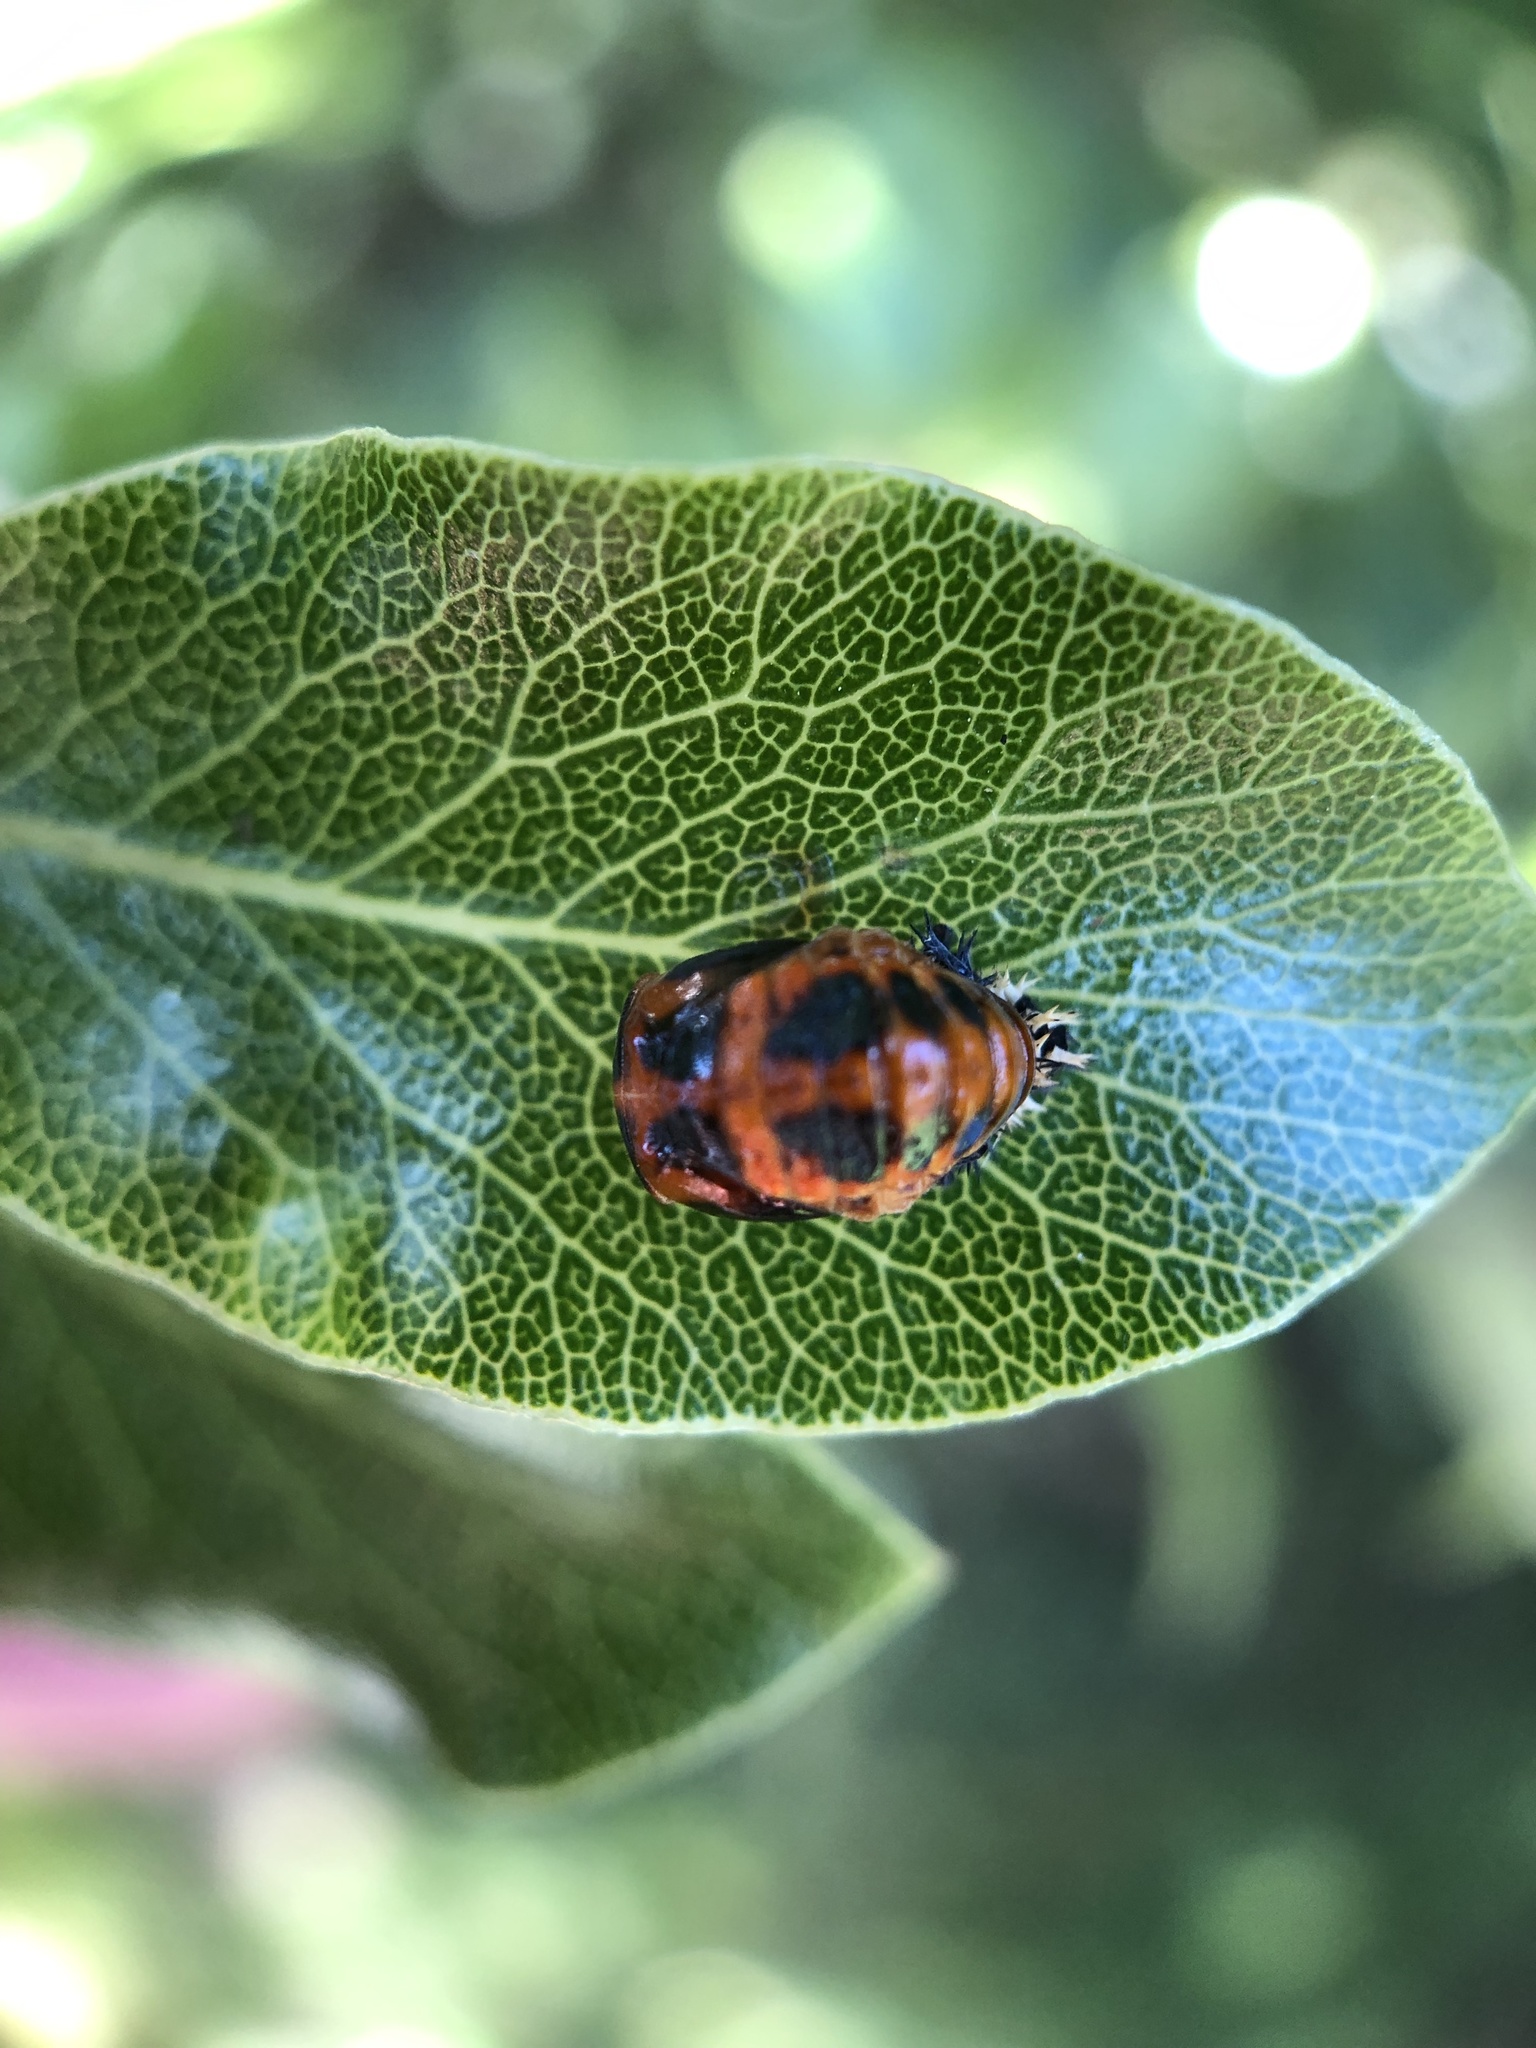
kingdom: Animalia
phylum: Arthropoda
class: Insecta
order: Coleoptera
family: Coccinellidae
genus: Harmonia
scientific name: Harmonia axyridis
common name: Harlequin ladybird
